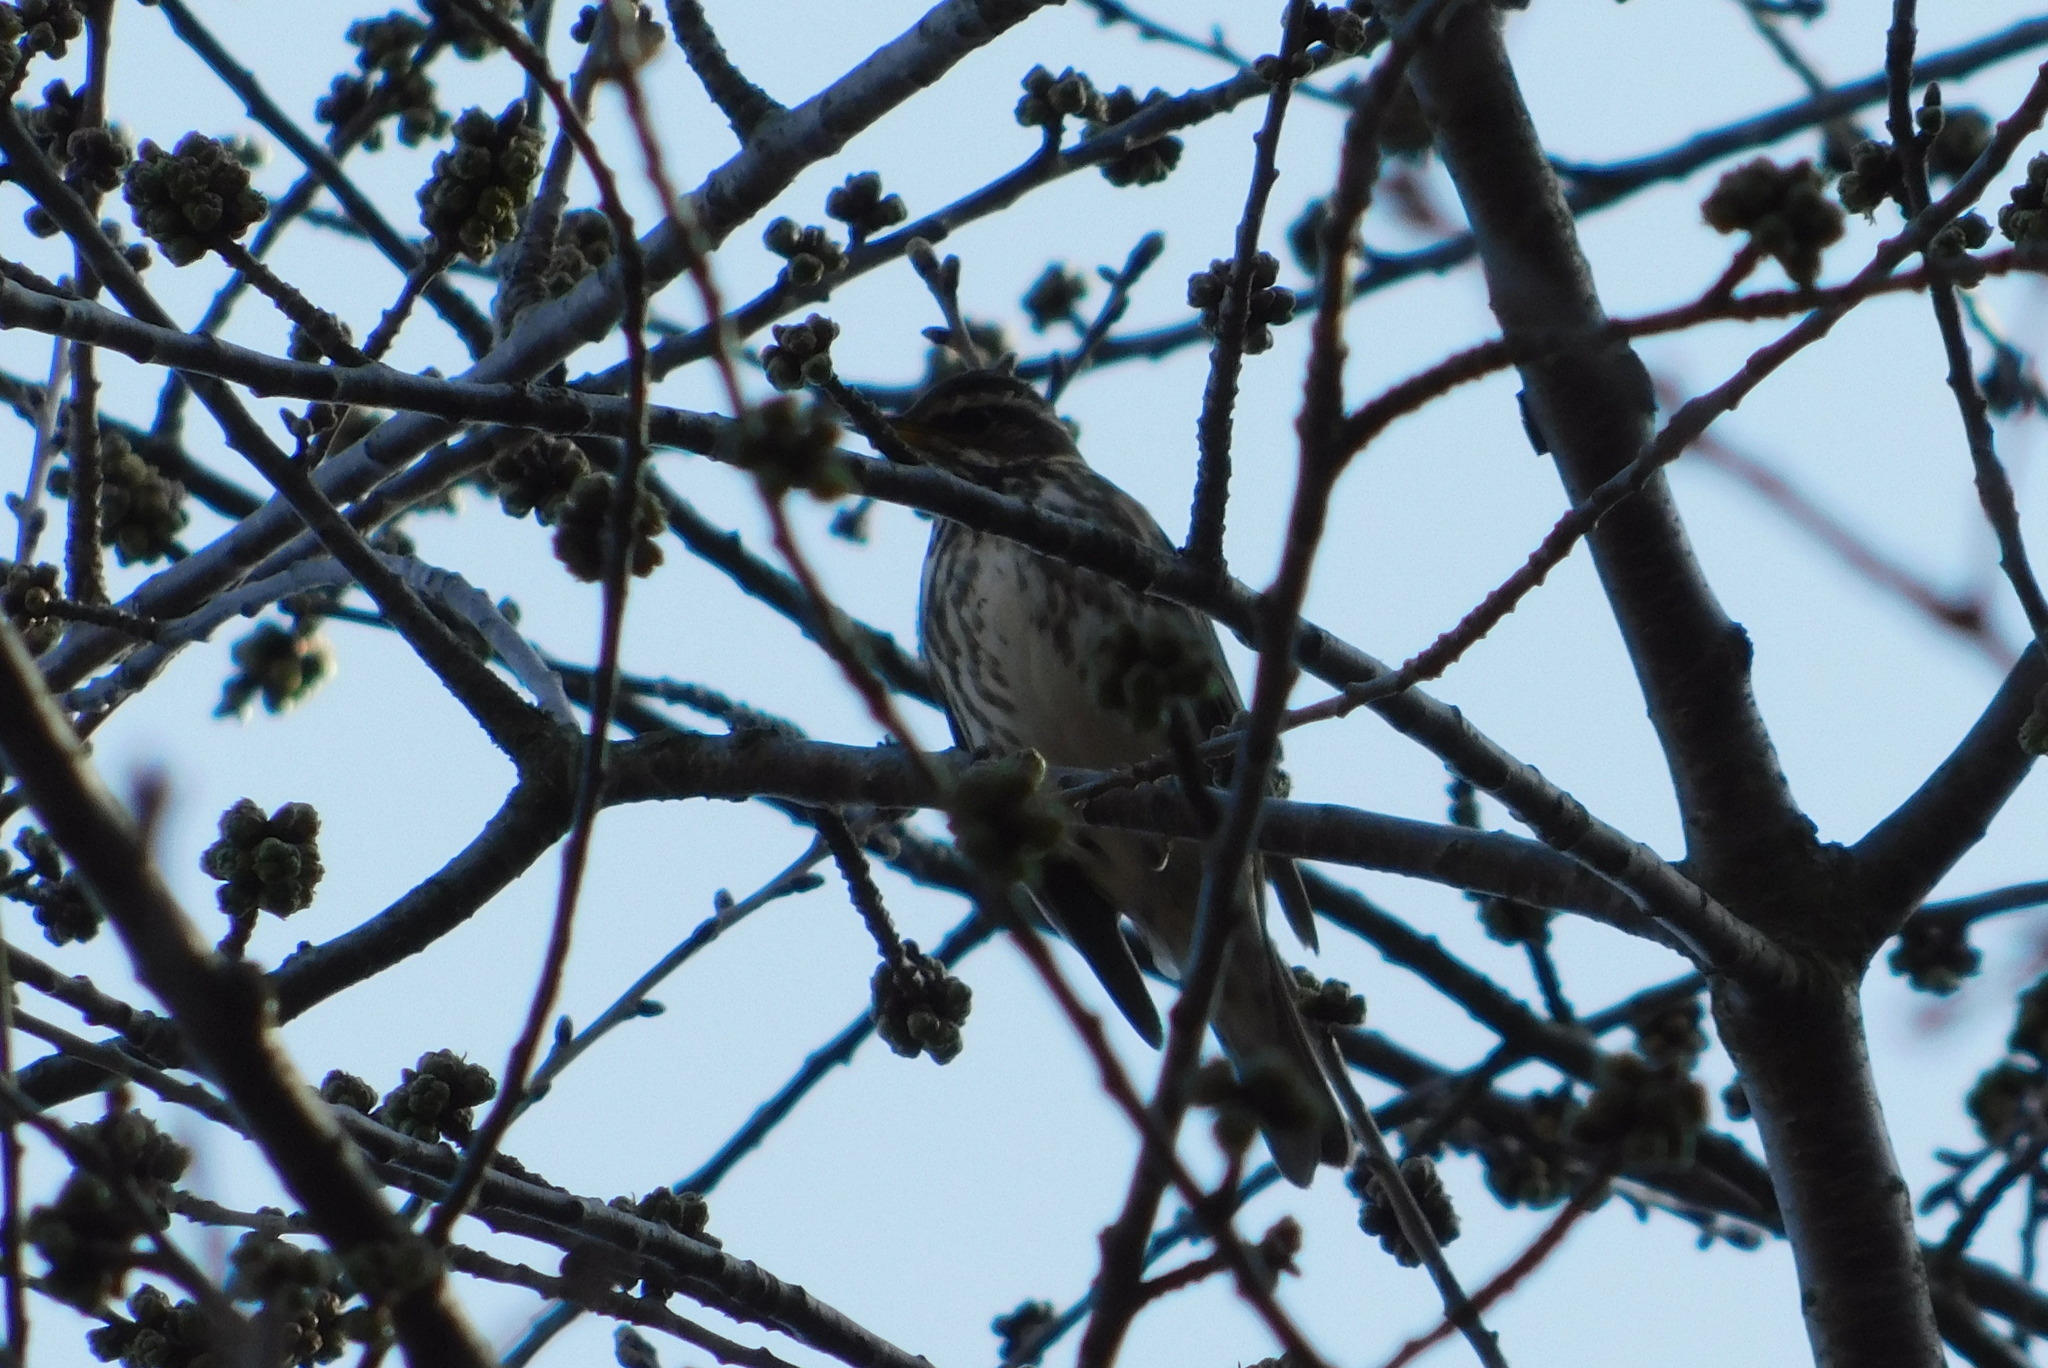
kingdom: Animalia
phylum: Chordata
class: Aves
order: Passeriformes
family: Turdidae
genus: Turdus
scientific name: Turdus iliacus
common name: Redwing
